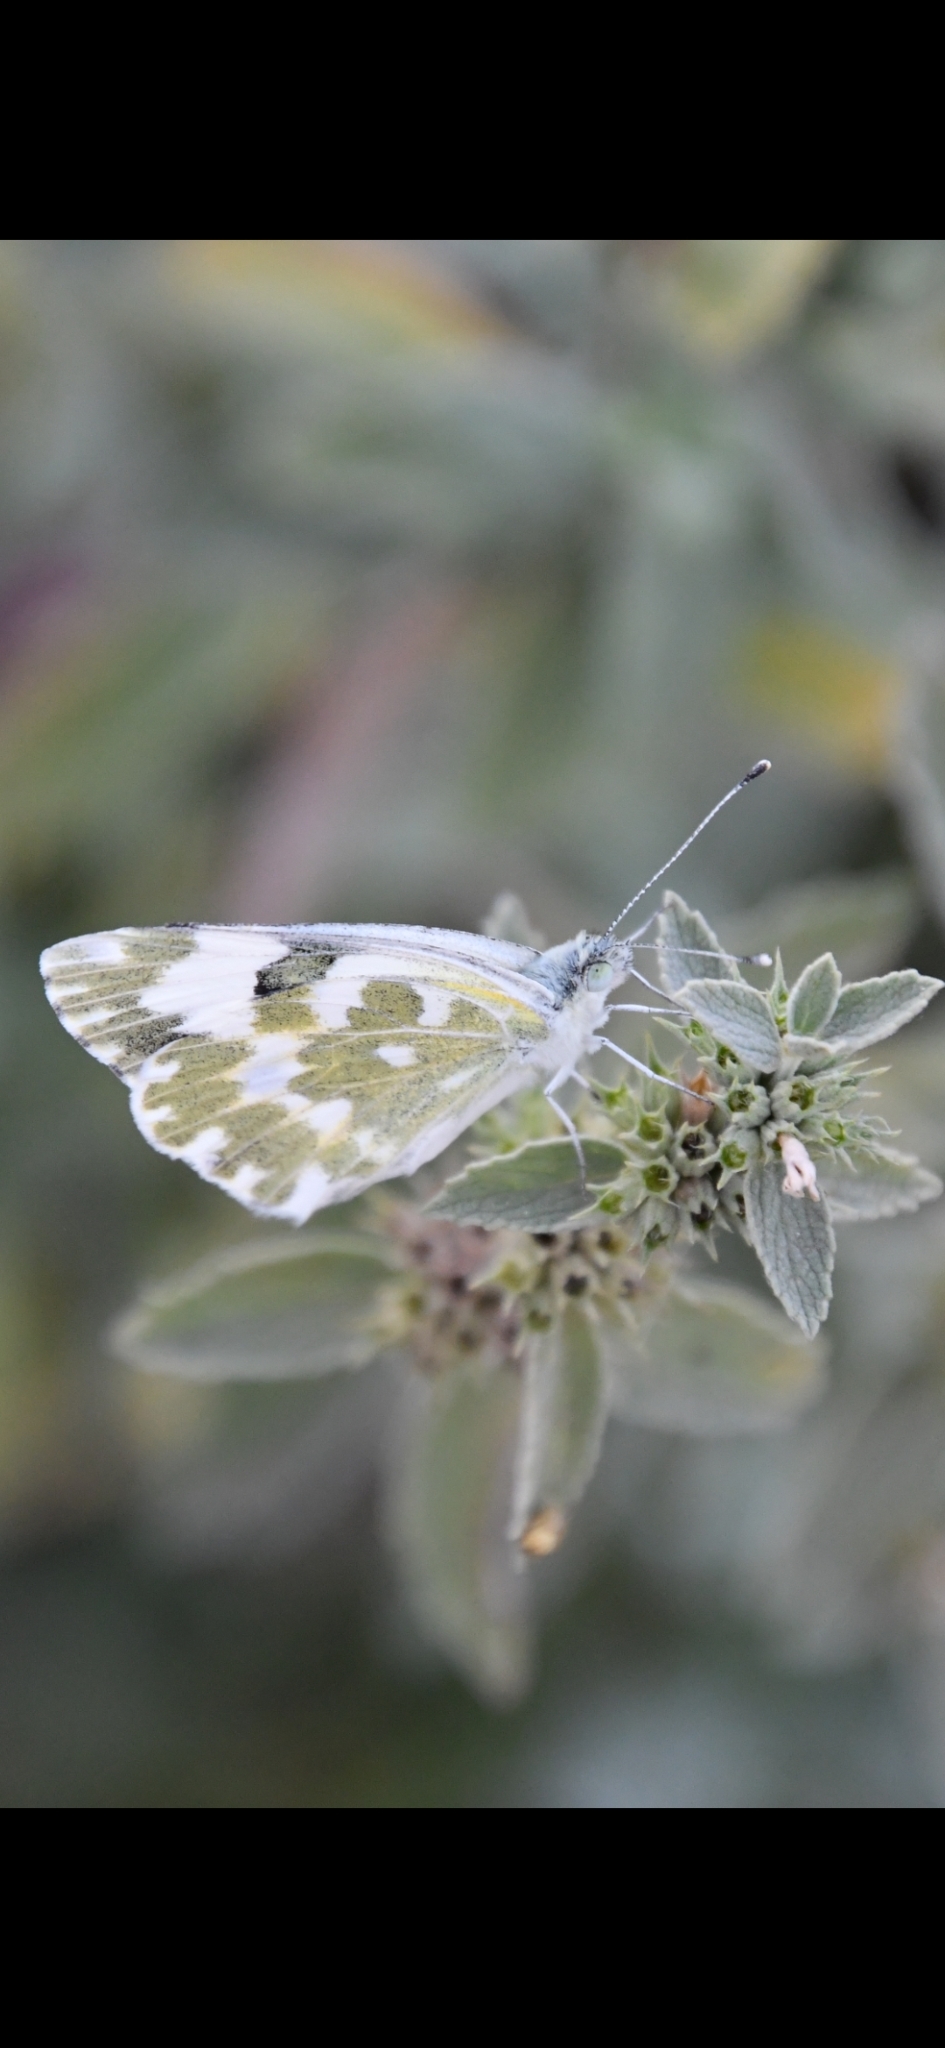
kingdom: Animalia
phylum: Arthropoda
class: Insecta
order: Lepidoptera
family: Pieridae
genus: Pontia
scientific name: Pontia edusa
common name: Eastern bath white
